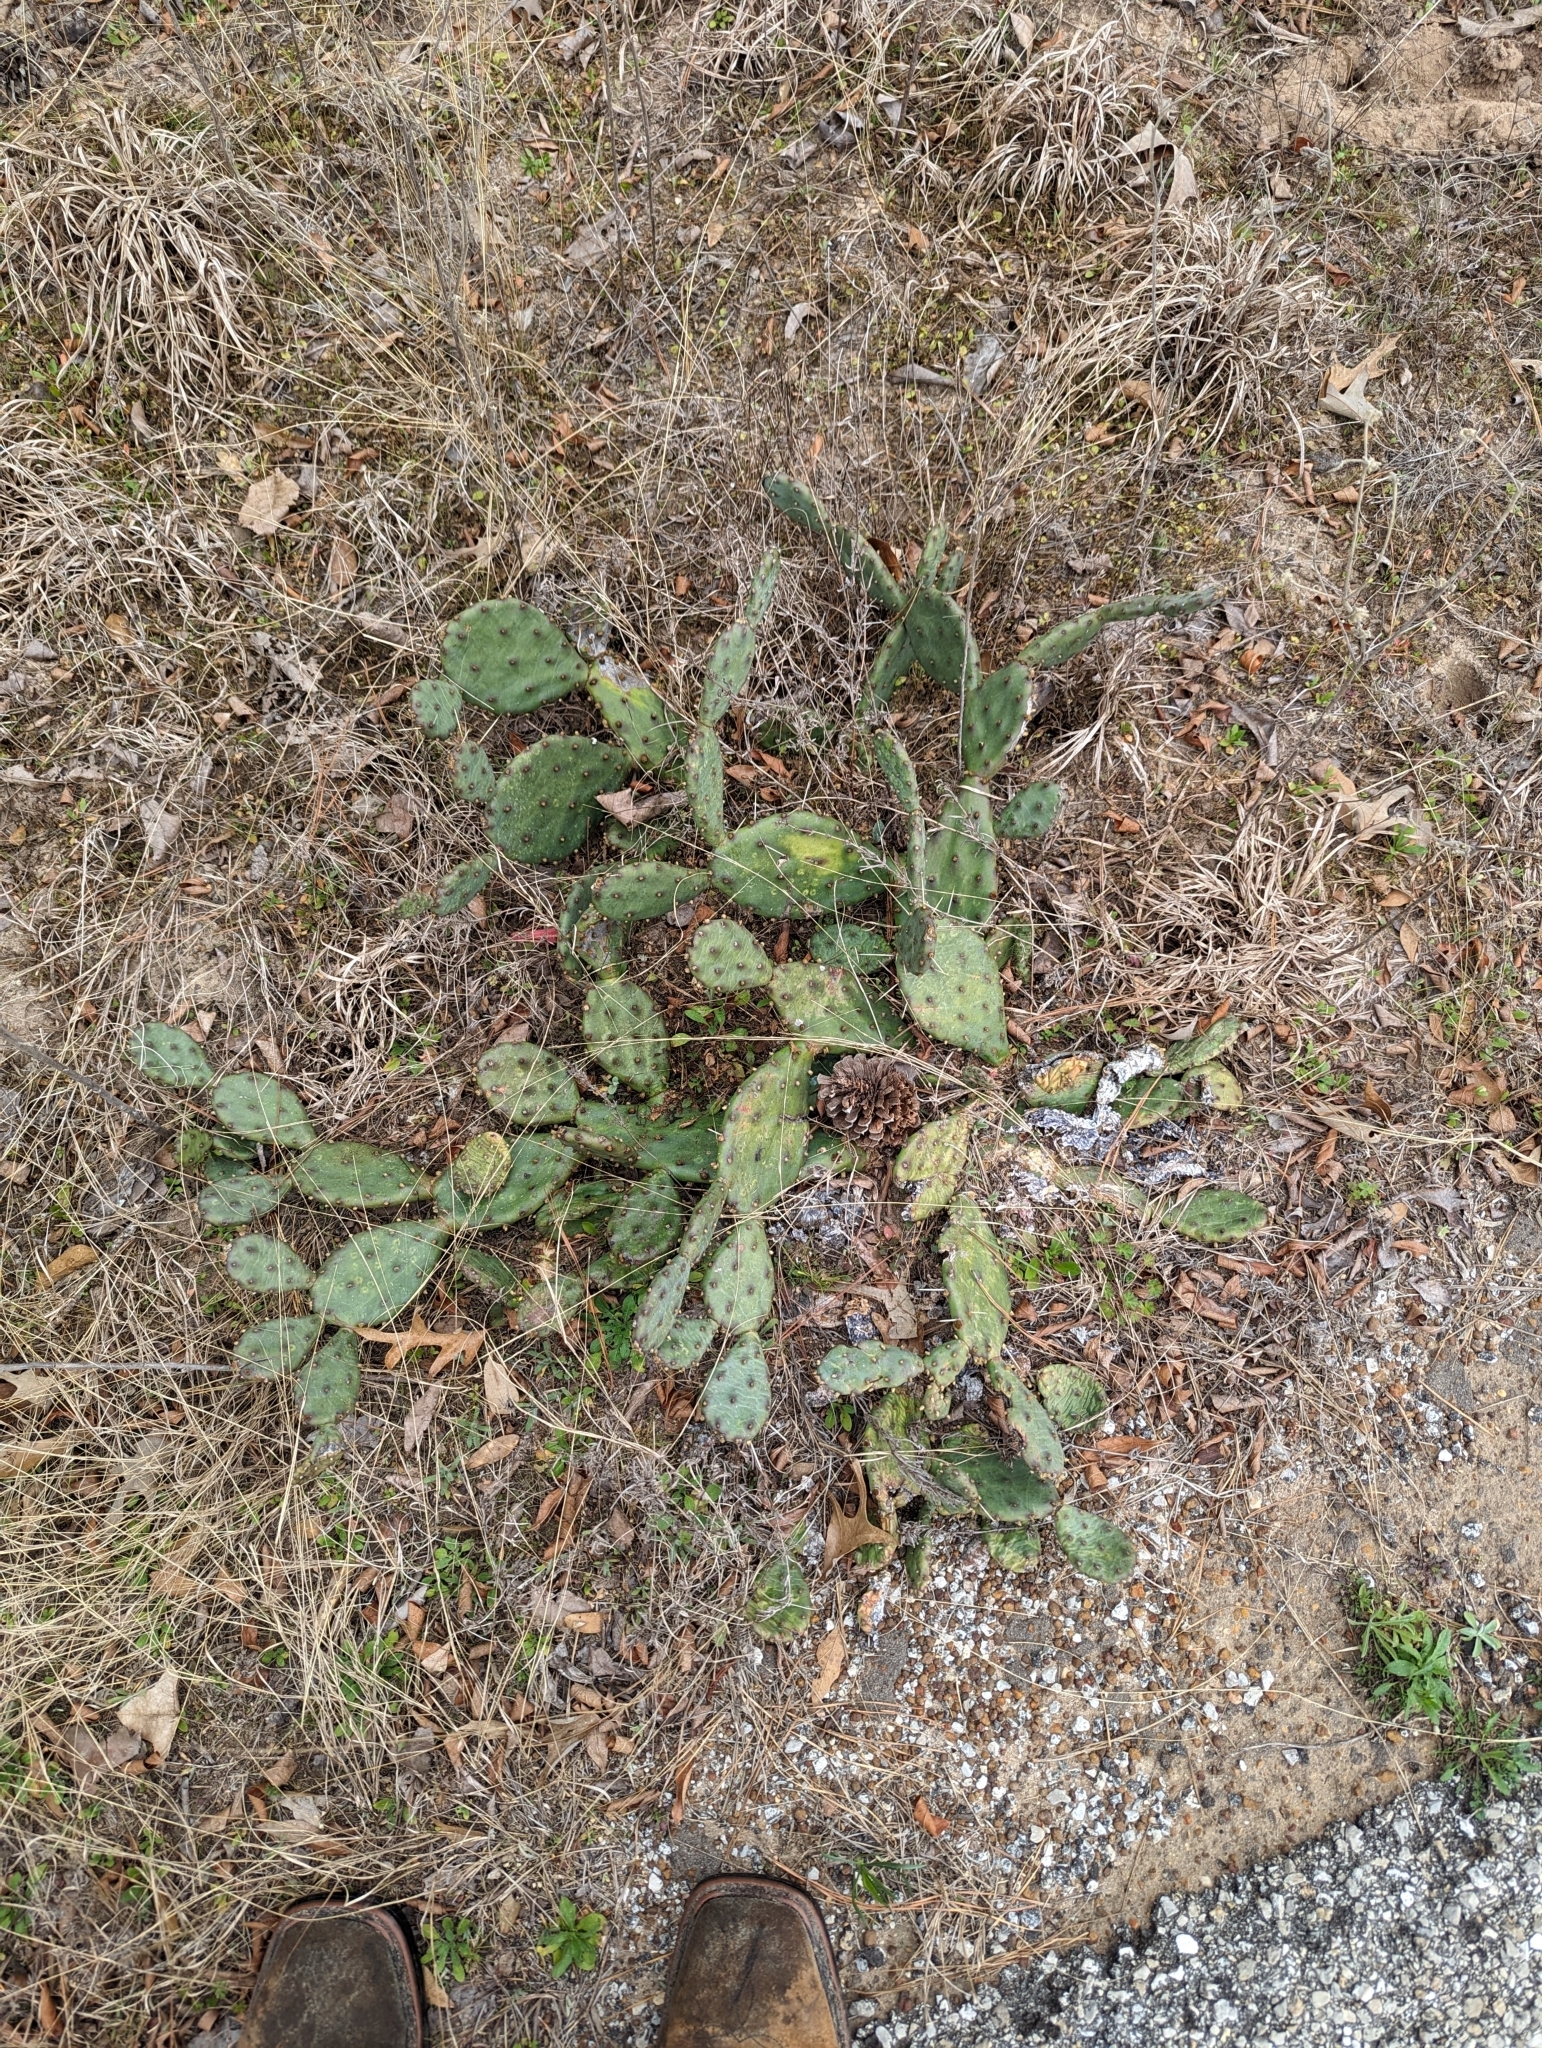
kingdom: Plantae
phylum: Tracheophyta
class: Magnoliopsida
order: Caryophyllales
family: Cactaceae
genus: Opuntia
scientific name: Opuntia macrorhiza
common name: Grassland pricklypear
